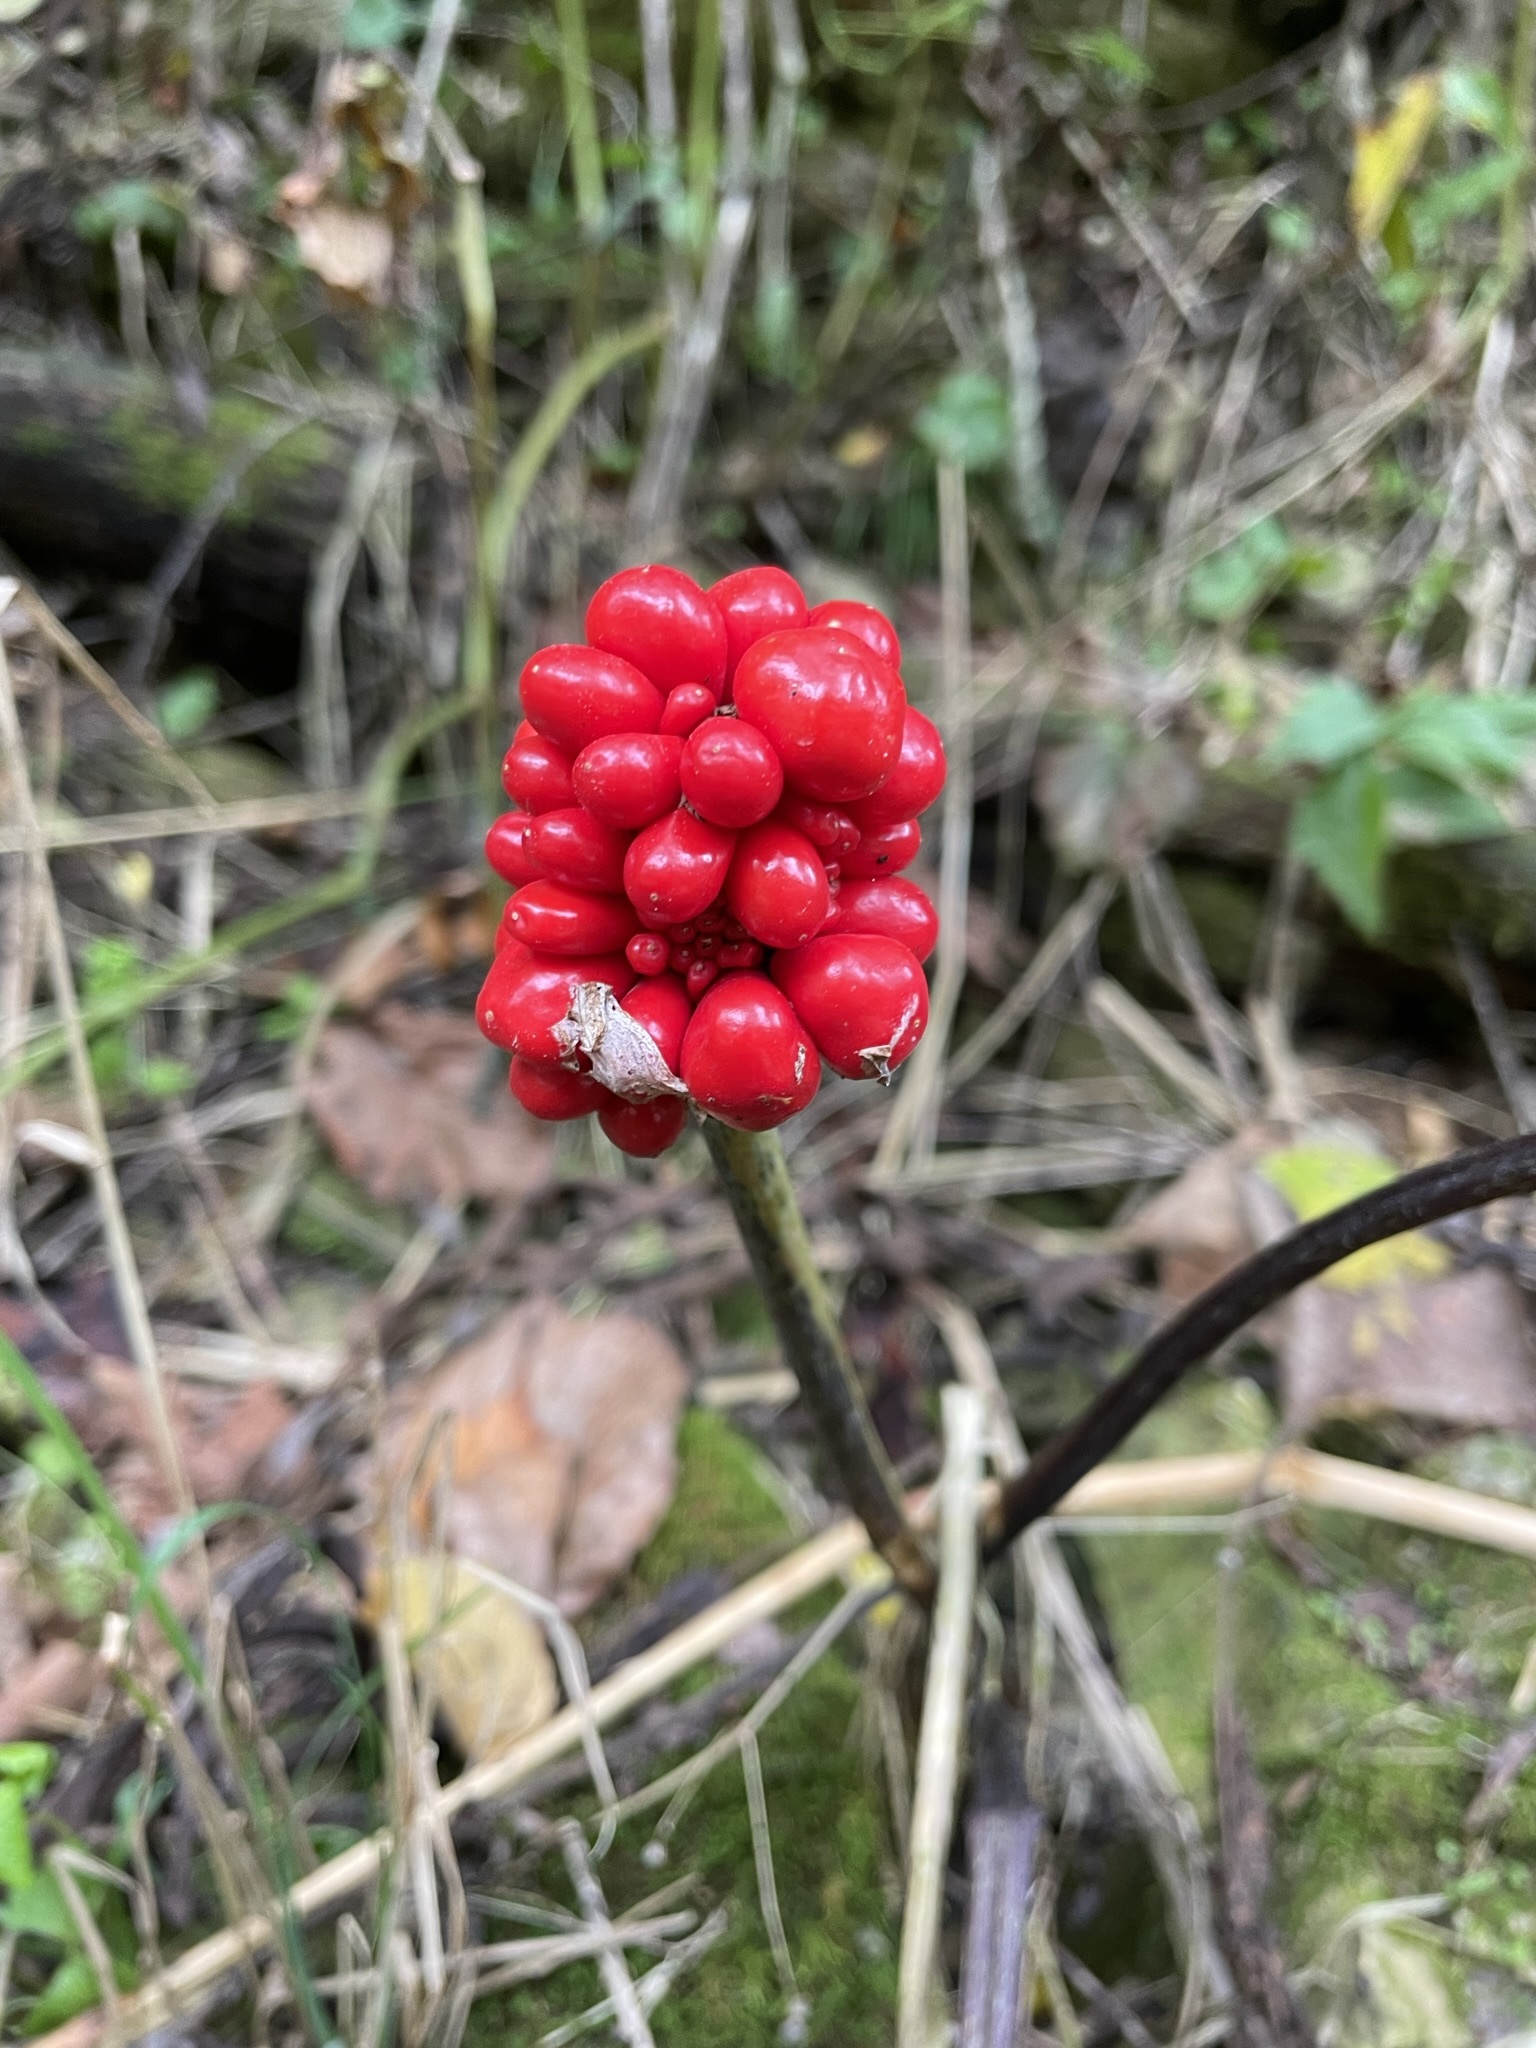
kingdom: Plantae
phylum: Tracheophyta
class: Liliopsida
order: Alismatales
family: Araceae
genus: Arisaema
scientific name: Arisaema triphyllum
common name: Jack-in-the-pulpit
